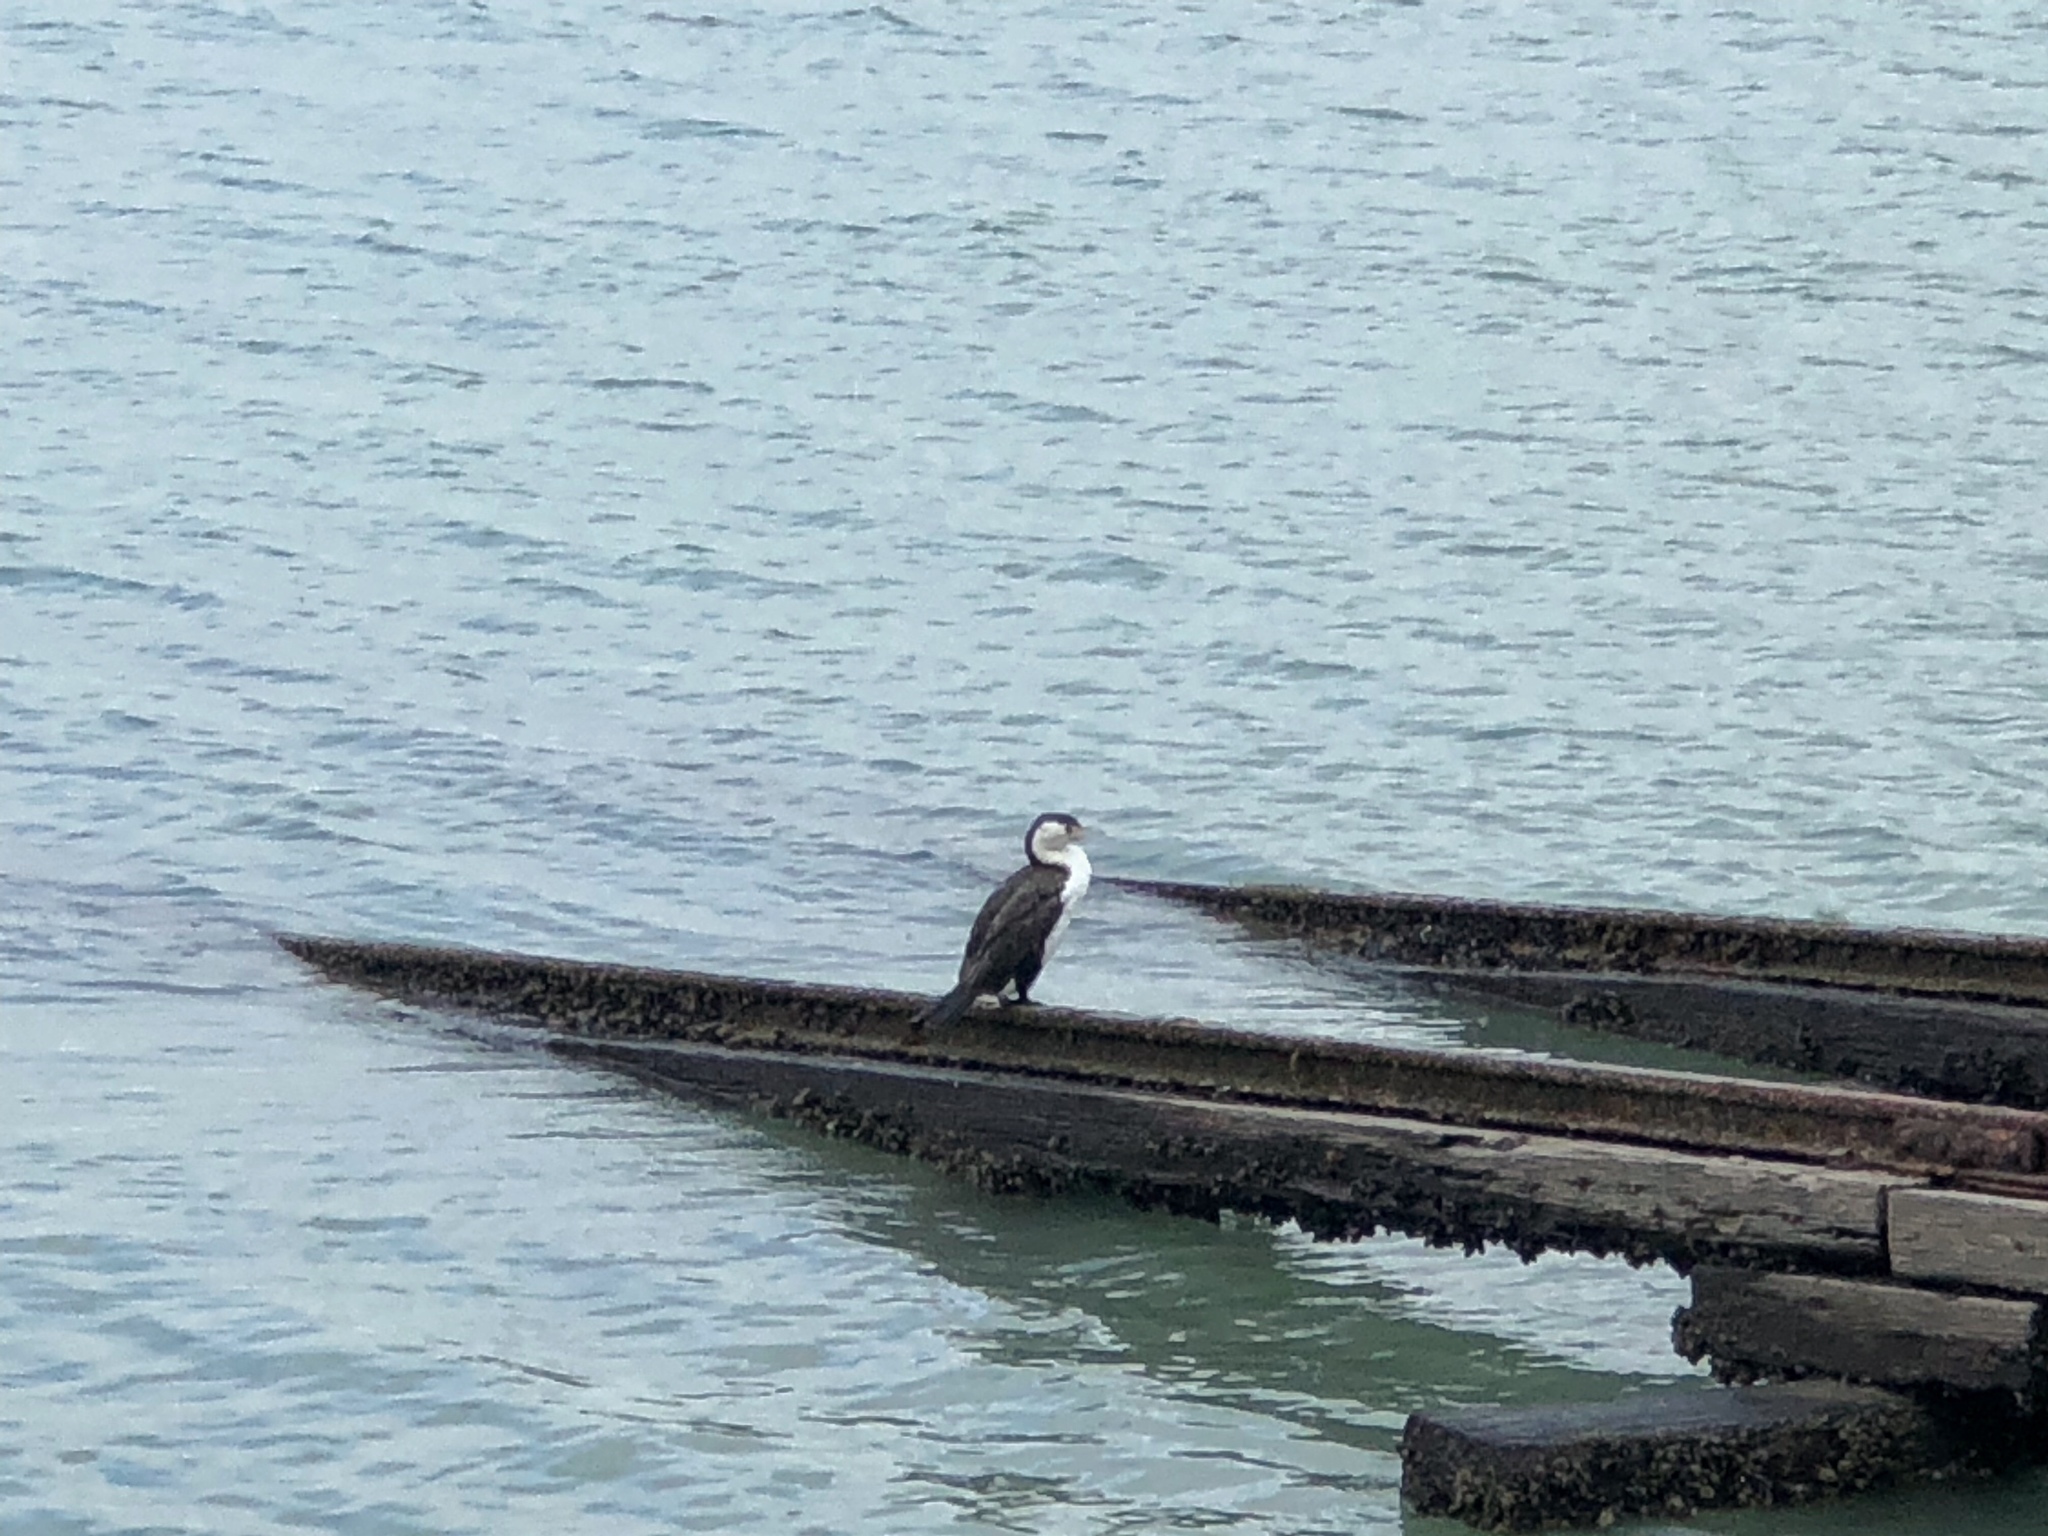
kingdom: Animalia
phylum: Chordata
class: Aves
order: Suliformes
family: Phalacrocoracidae
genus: Phalacrocorax
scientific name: Phalacrocorax varius
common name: Pied cormorant
